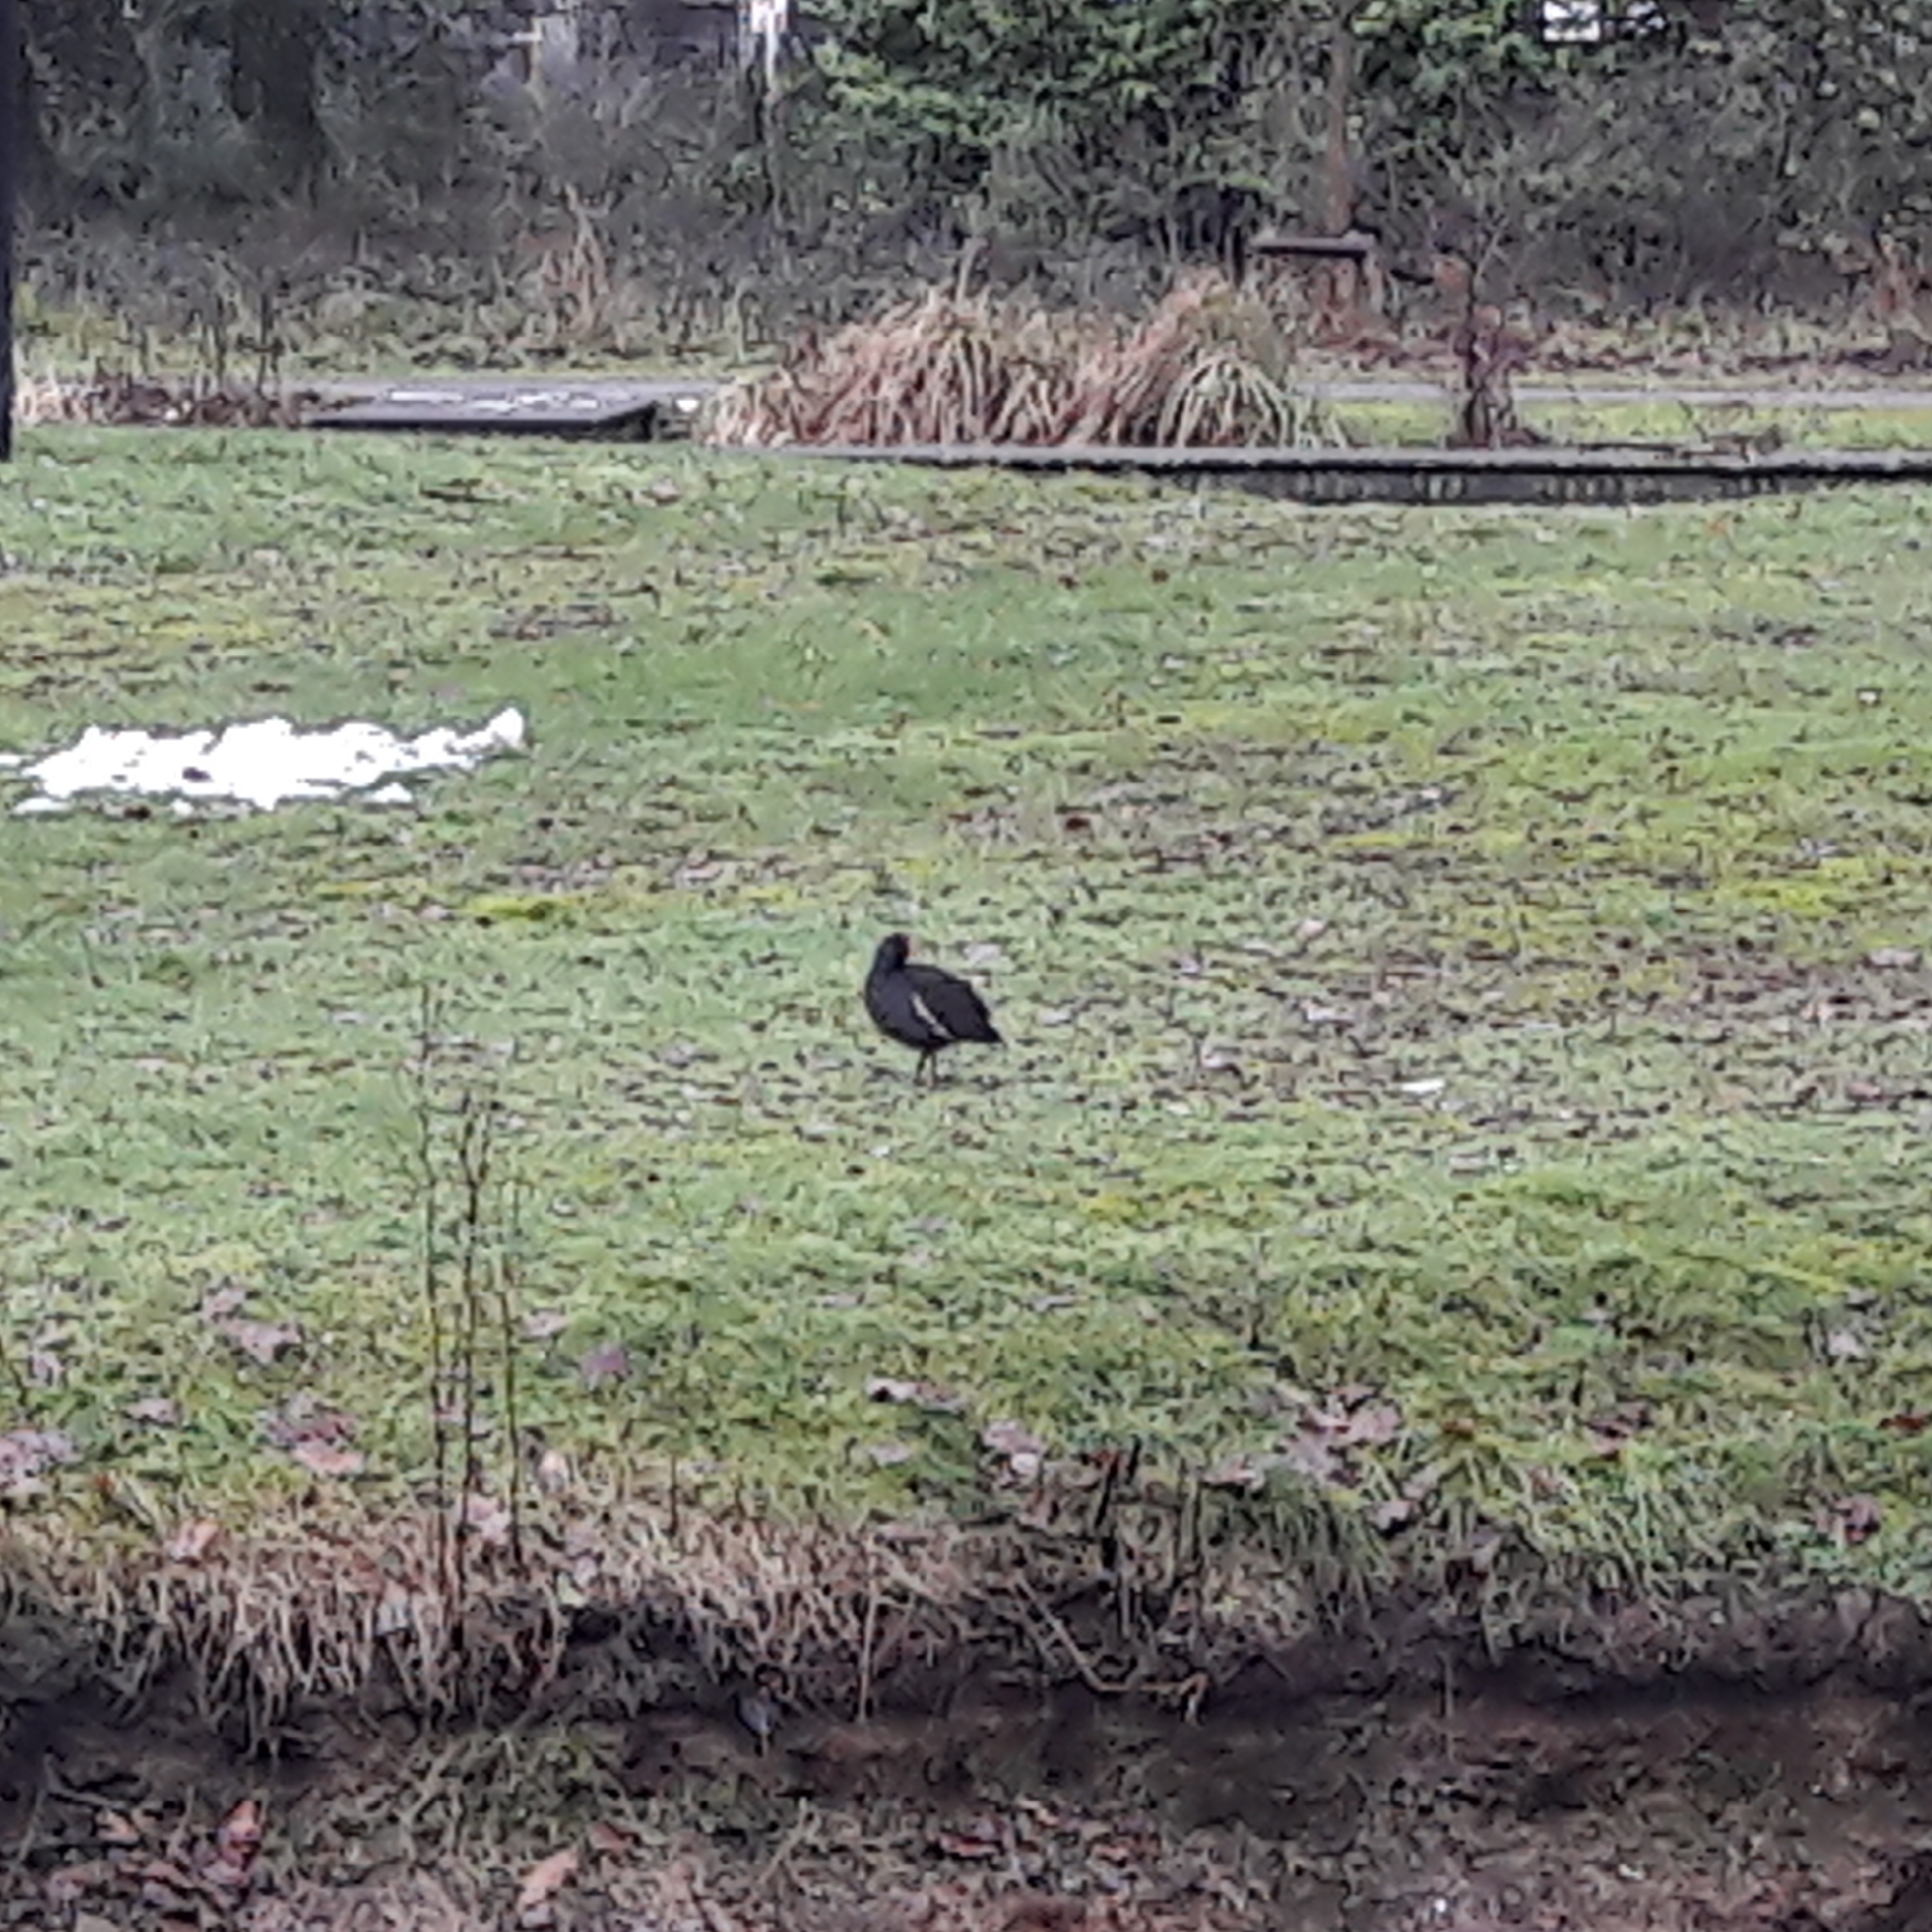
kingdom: Animalia
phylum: Chordata
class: Aves
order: Gruiformes
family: Rallidae
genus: Gallinula
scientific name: Gallinula chloropus
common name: Common moorhen
